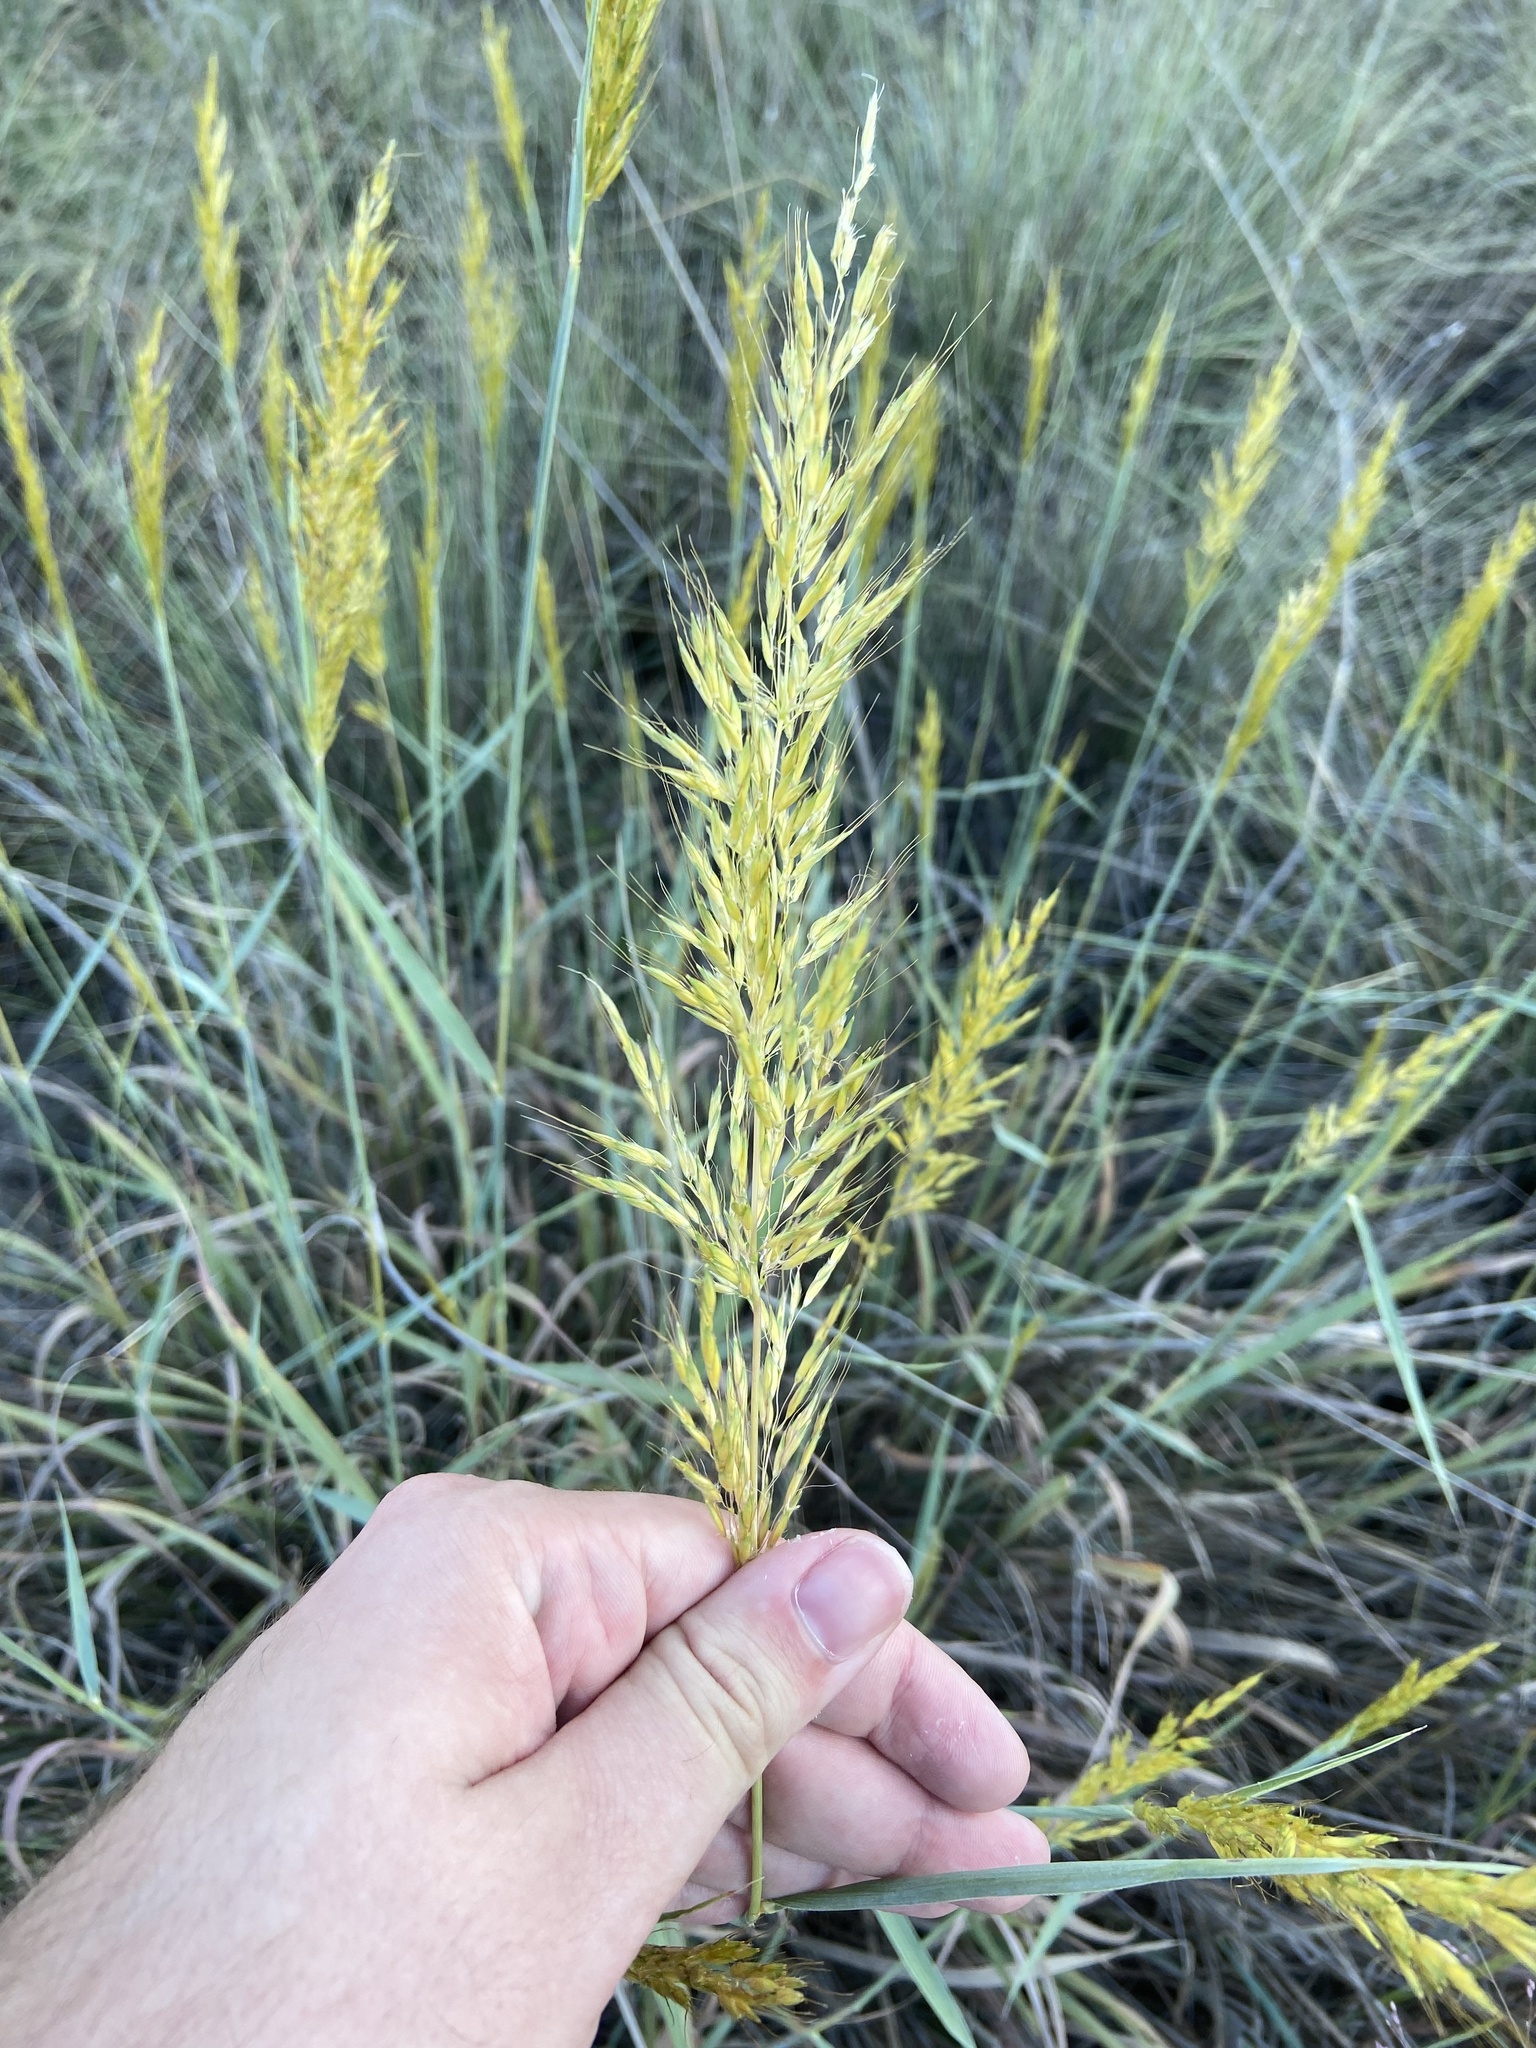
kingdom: Plantae
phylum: Tracheophyta
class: Liliopsida
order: Poales
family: Poaceae
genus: Sorghastrum
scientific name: Sorghastrum nutans
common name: Indian grass
